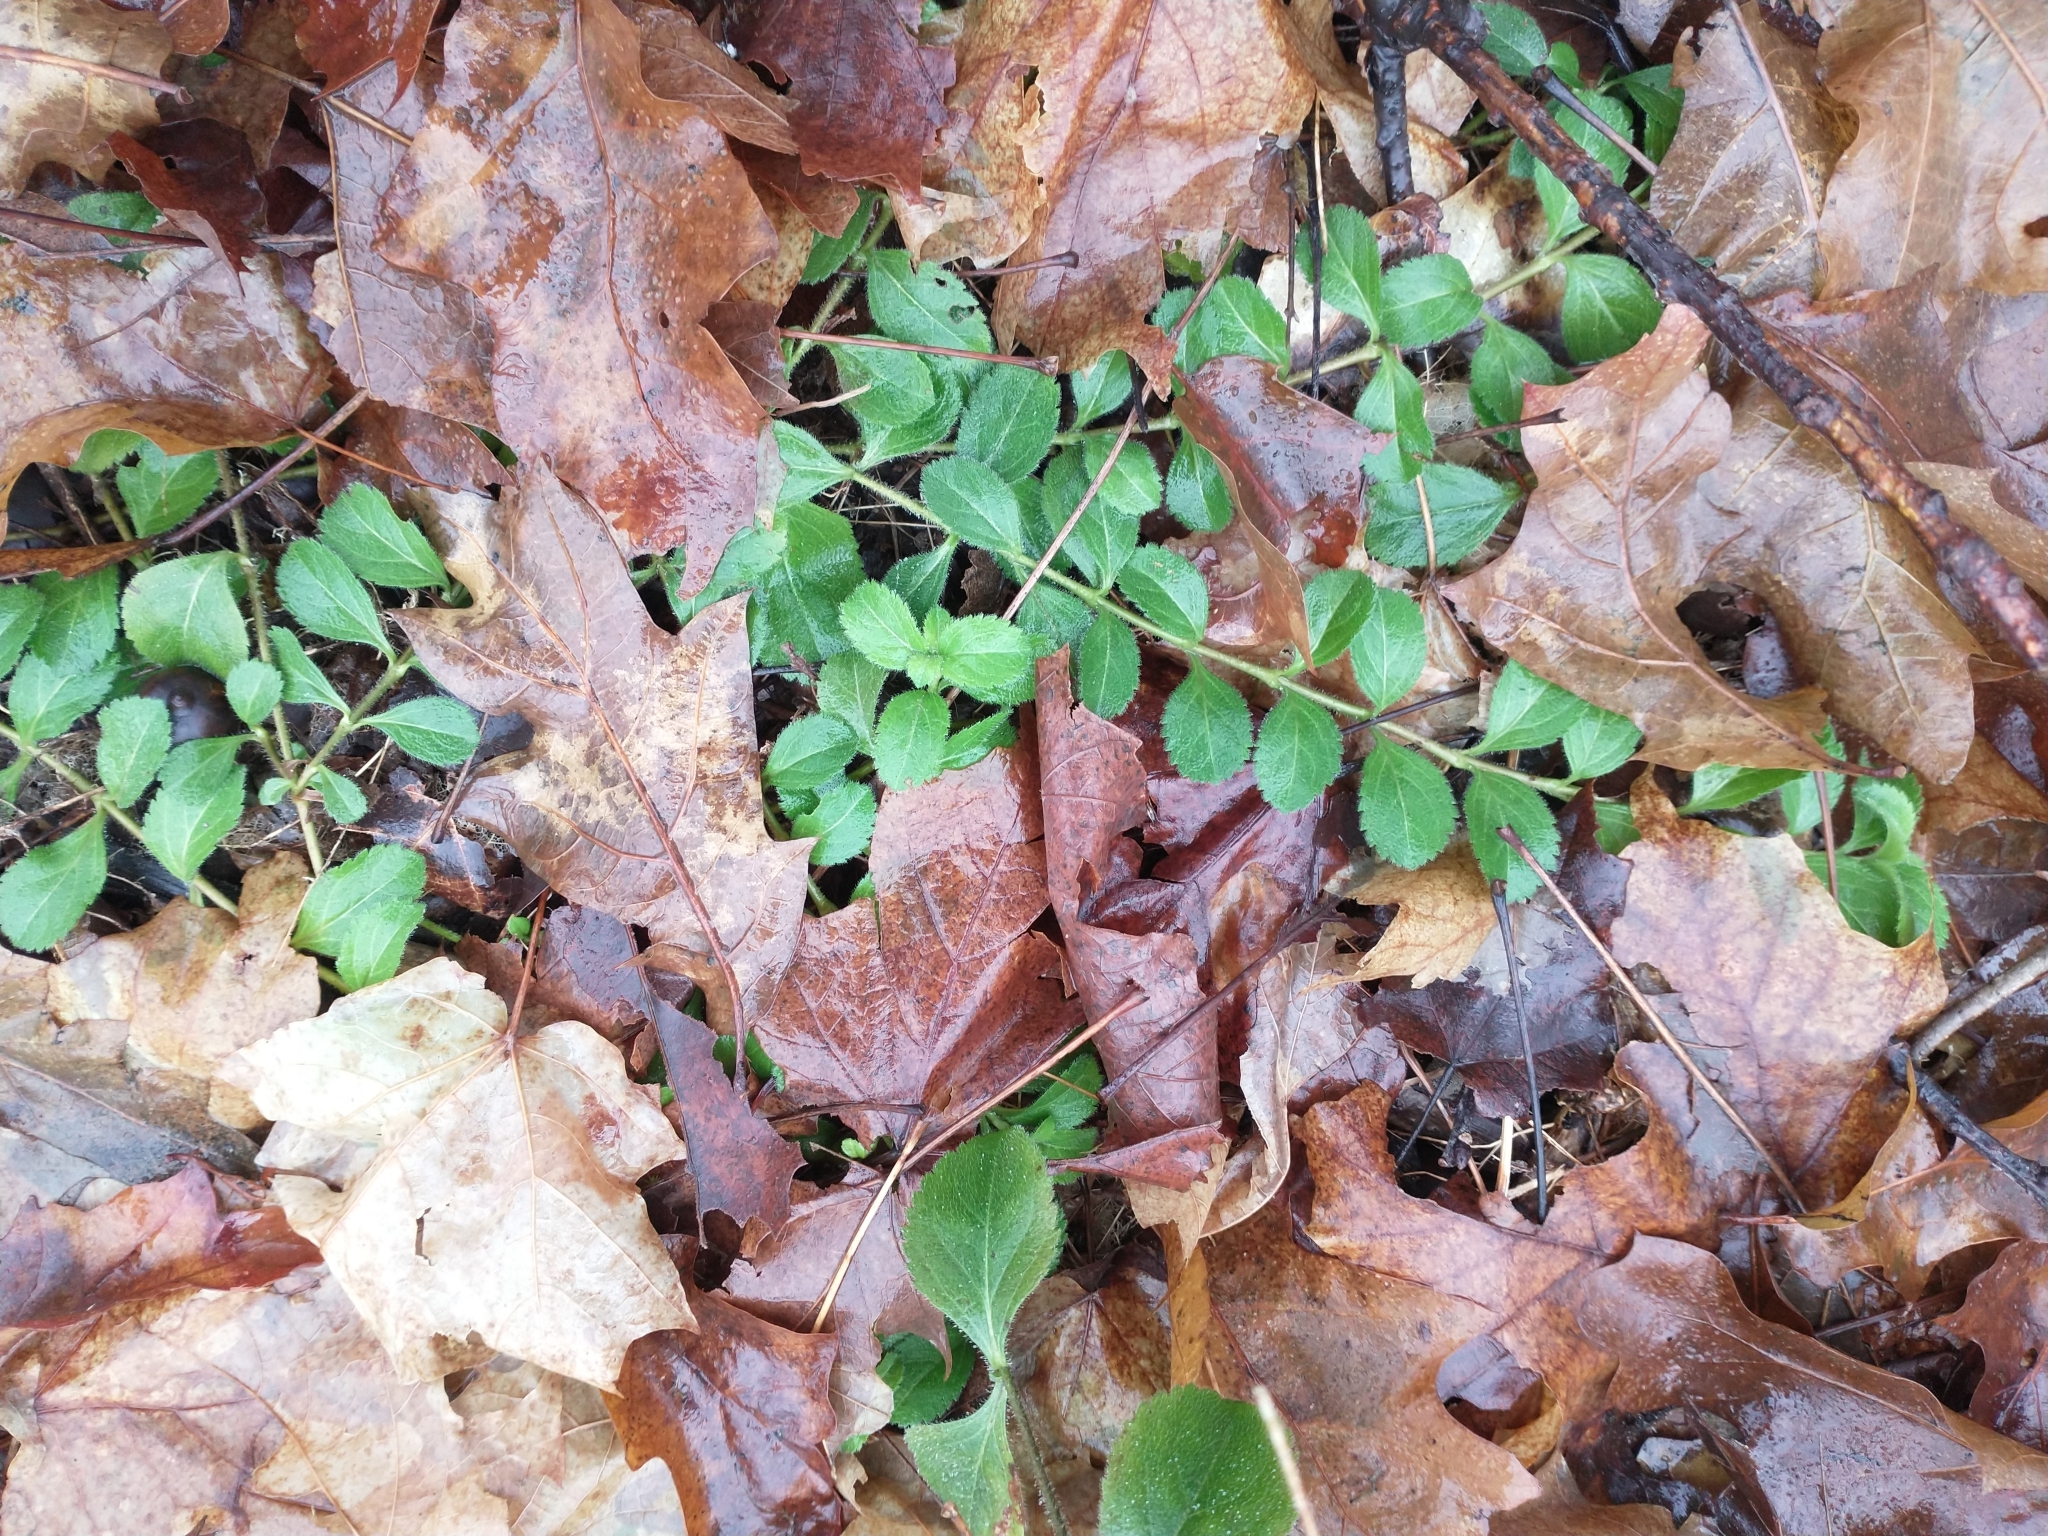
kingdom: Plantae
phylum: Tracheophyta
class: Magnoliopsida
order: Fagales
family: Fagaceae
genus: Quercus
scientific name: Quercus rubra
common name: Red oak
